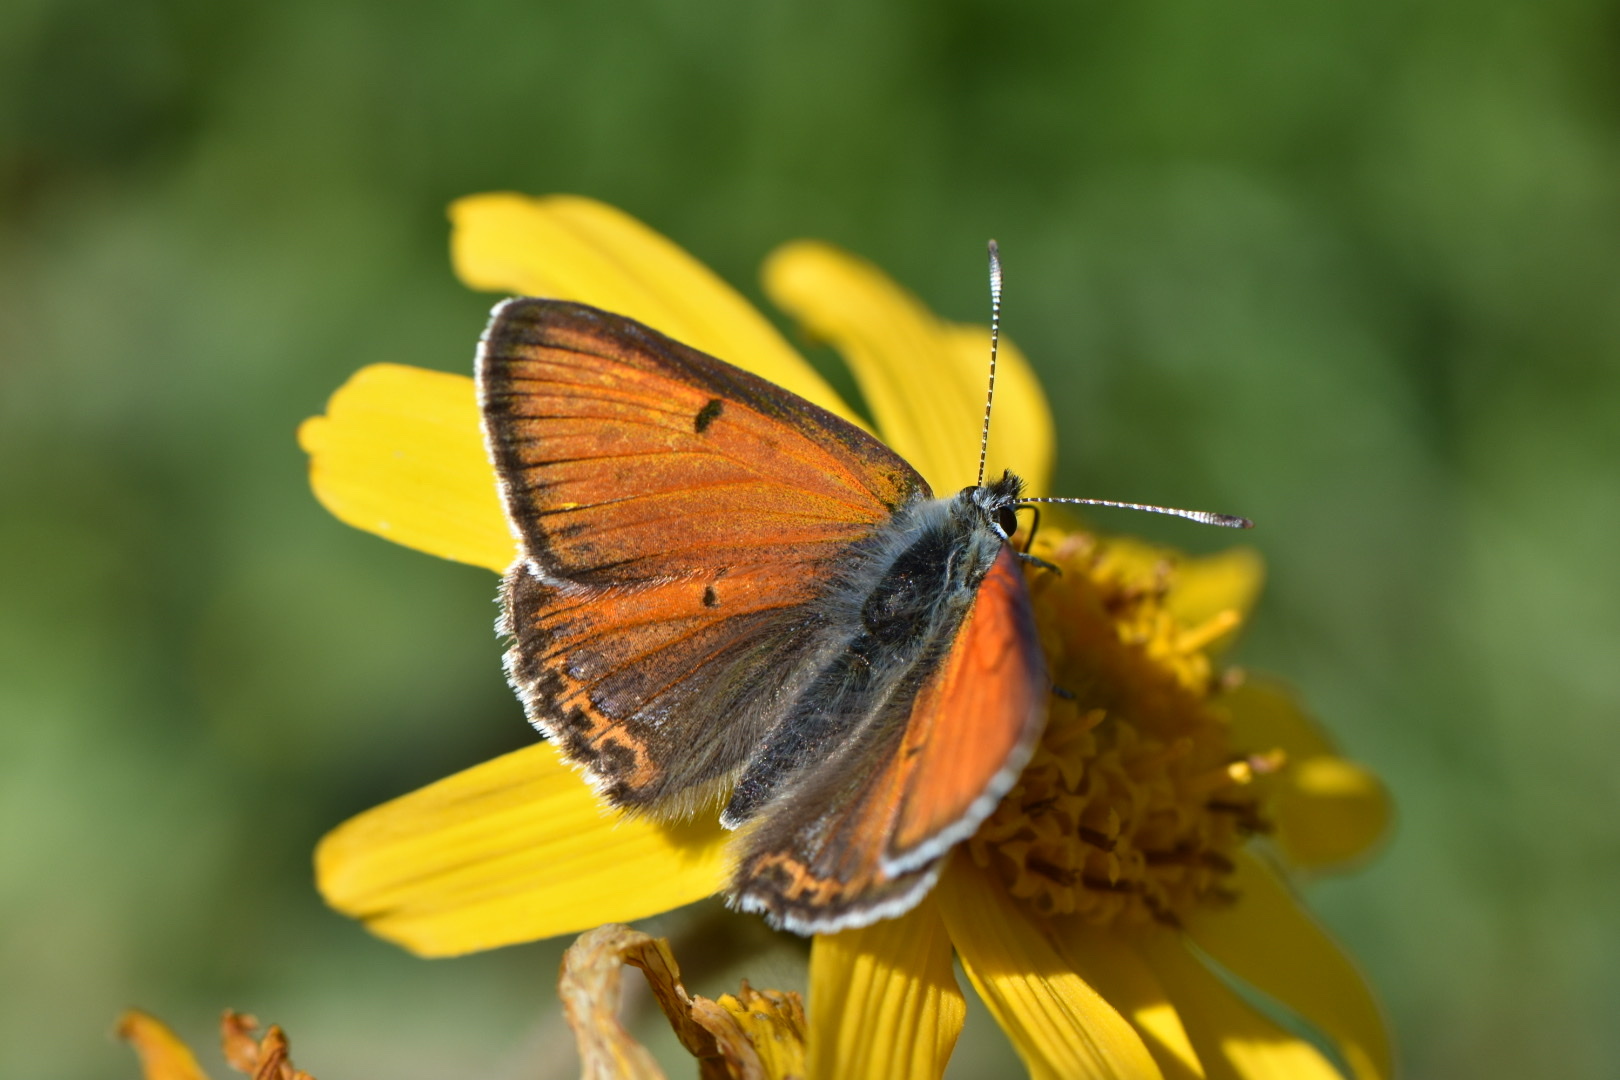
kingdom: Animalia
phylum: Arthropoda
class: Insecta
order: Lepidoptera
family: Lycaenidae
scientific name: Lycaenidae
